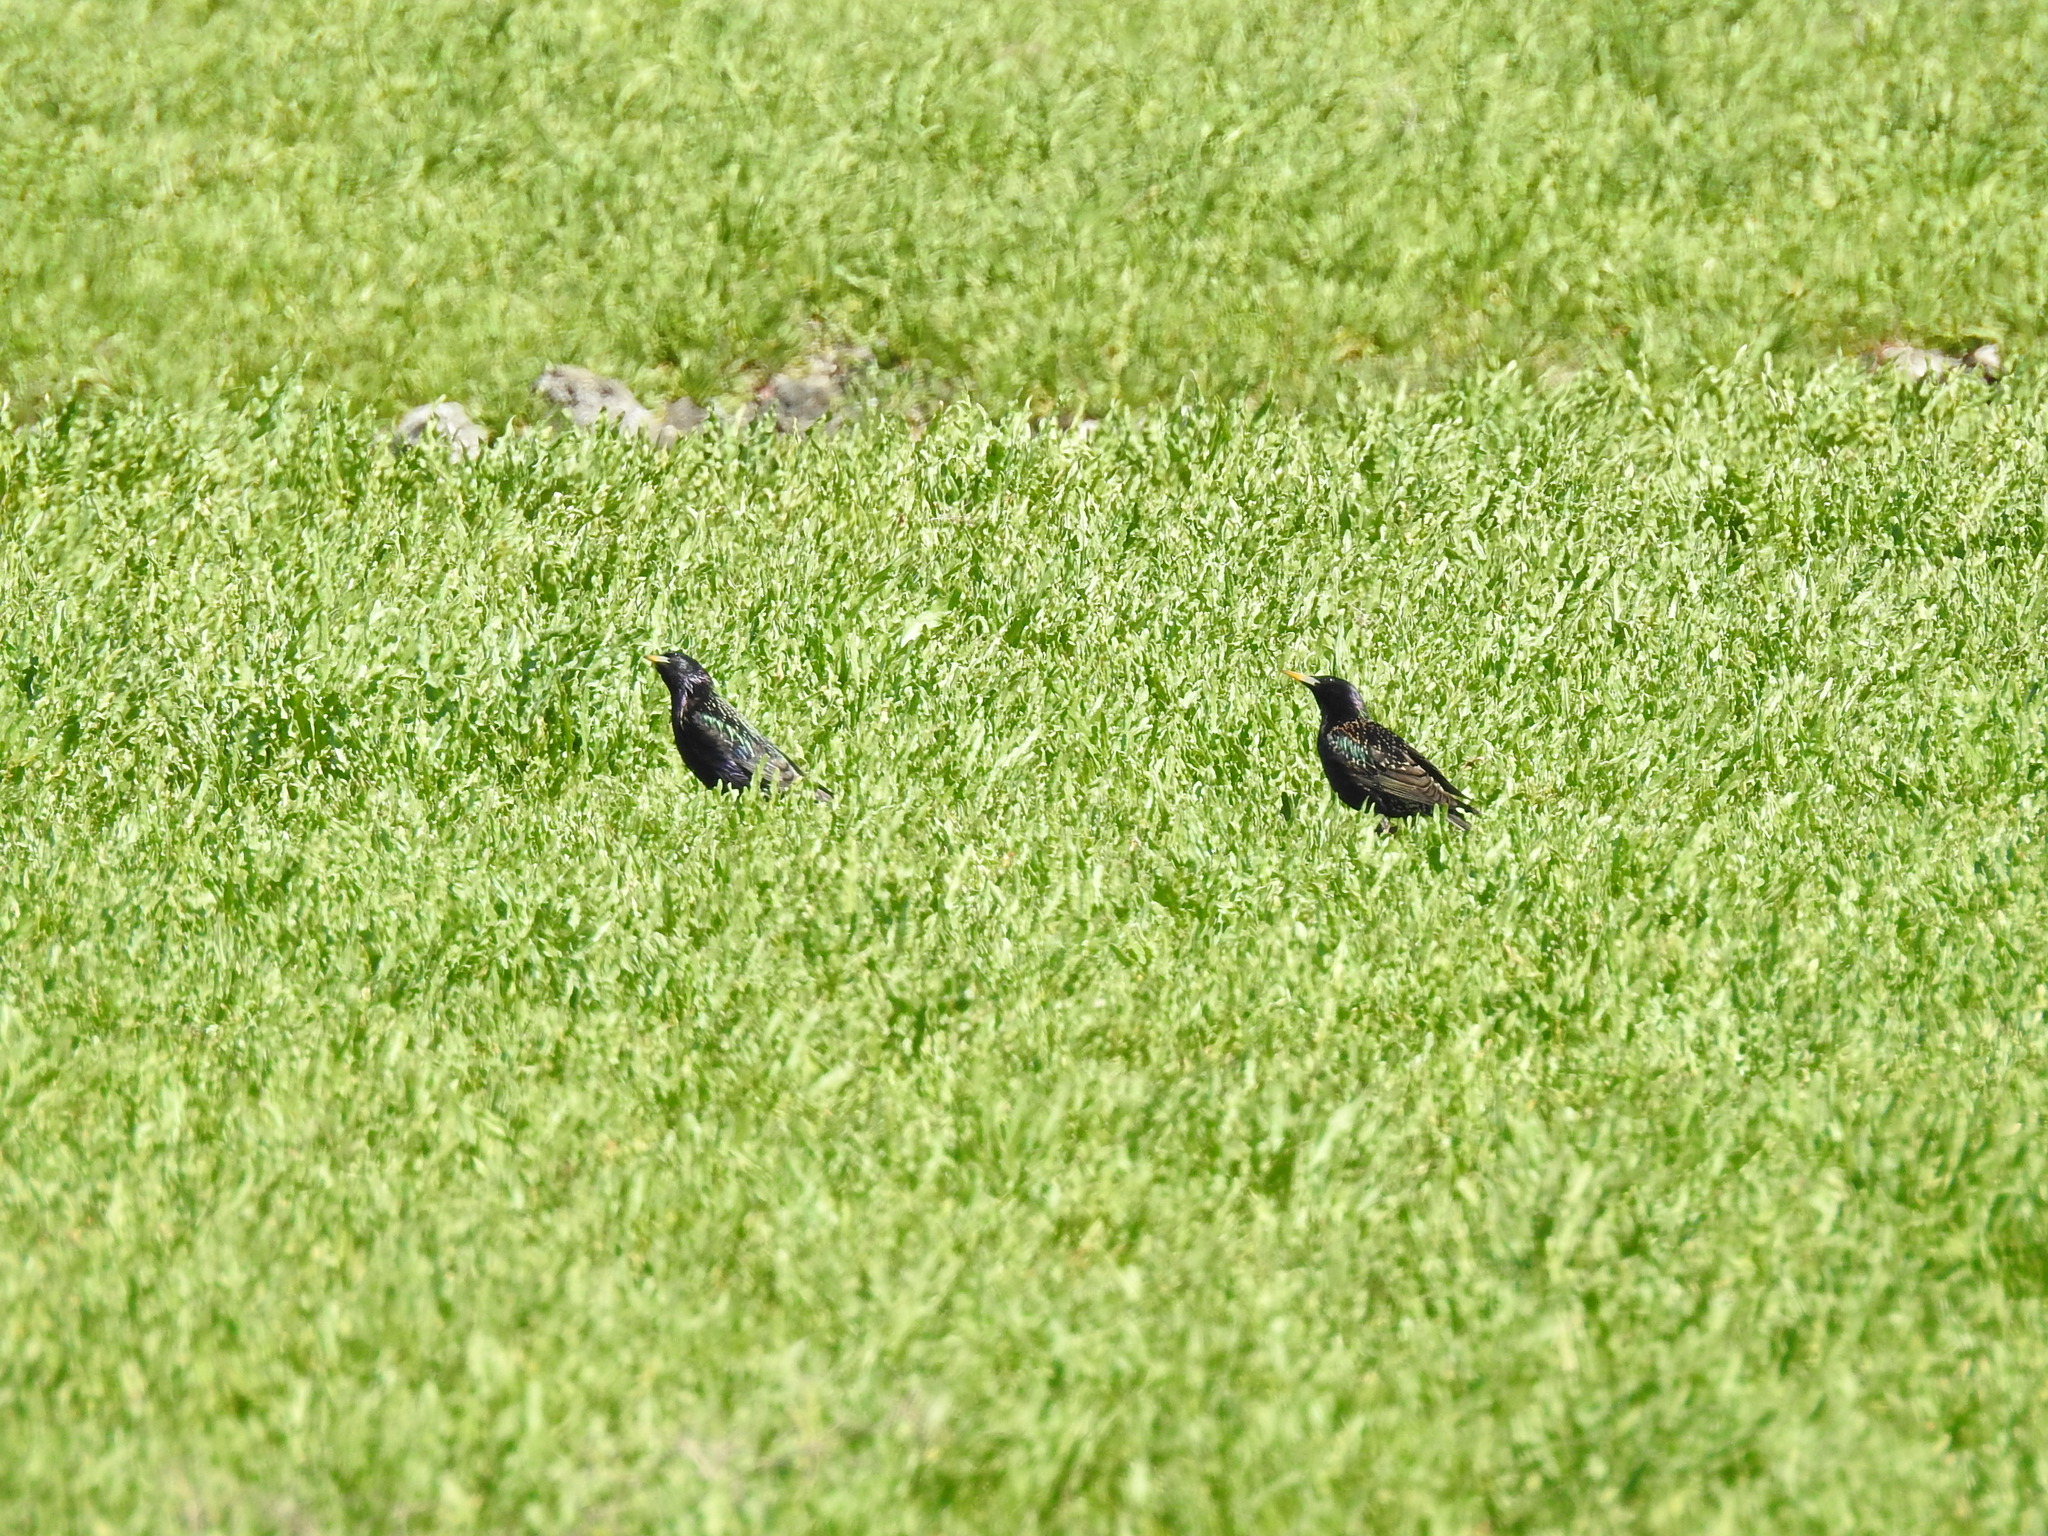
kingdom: Animalia
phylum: Chordata
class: Aves
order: Passeriformes
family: Sturnidae
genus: Sturnus
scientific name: Sturnus vulgaris
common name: Common starling
